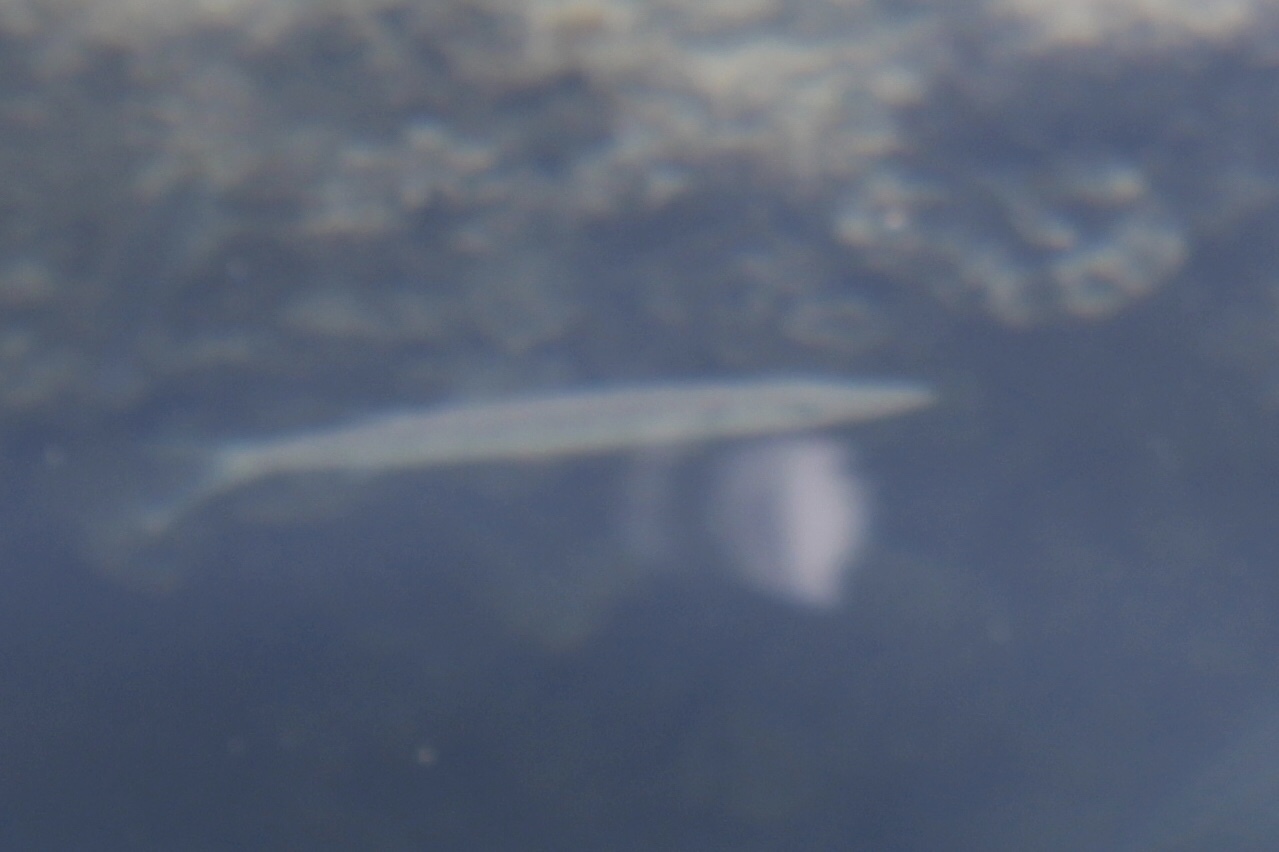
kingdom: Animalia
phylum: Chordata
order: Perciformes
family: Sphyraenidae
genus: Sphyraena
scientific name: Sphyraena
